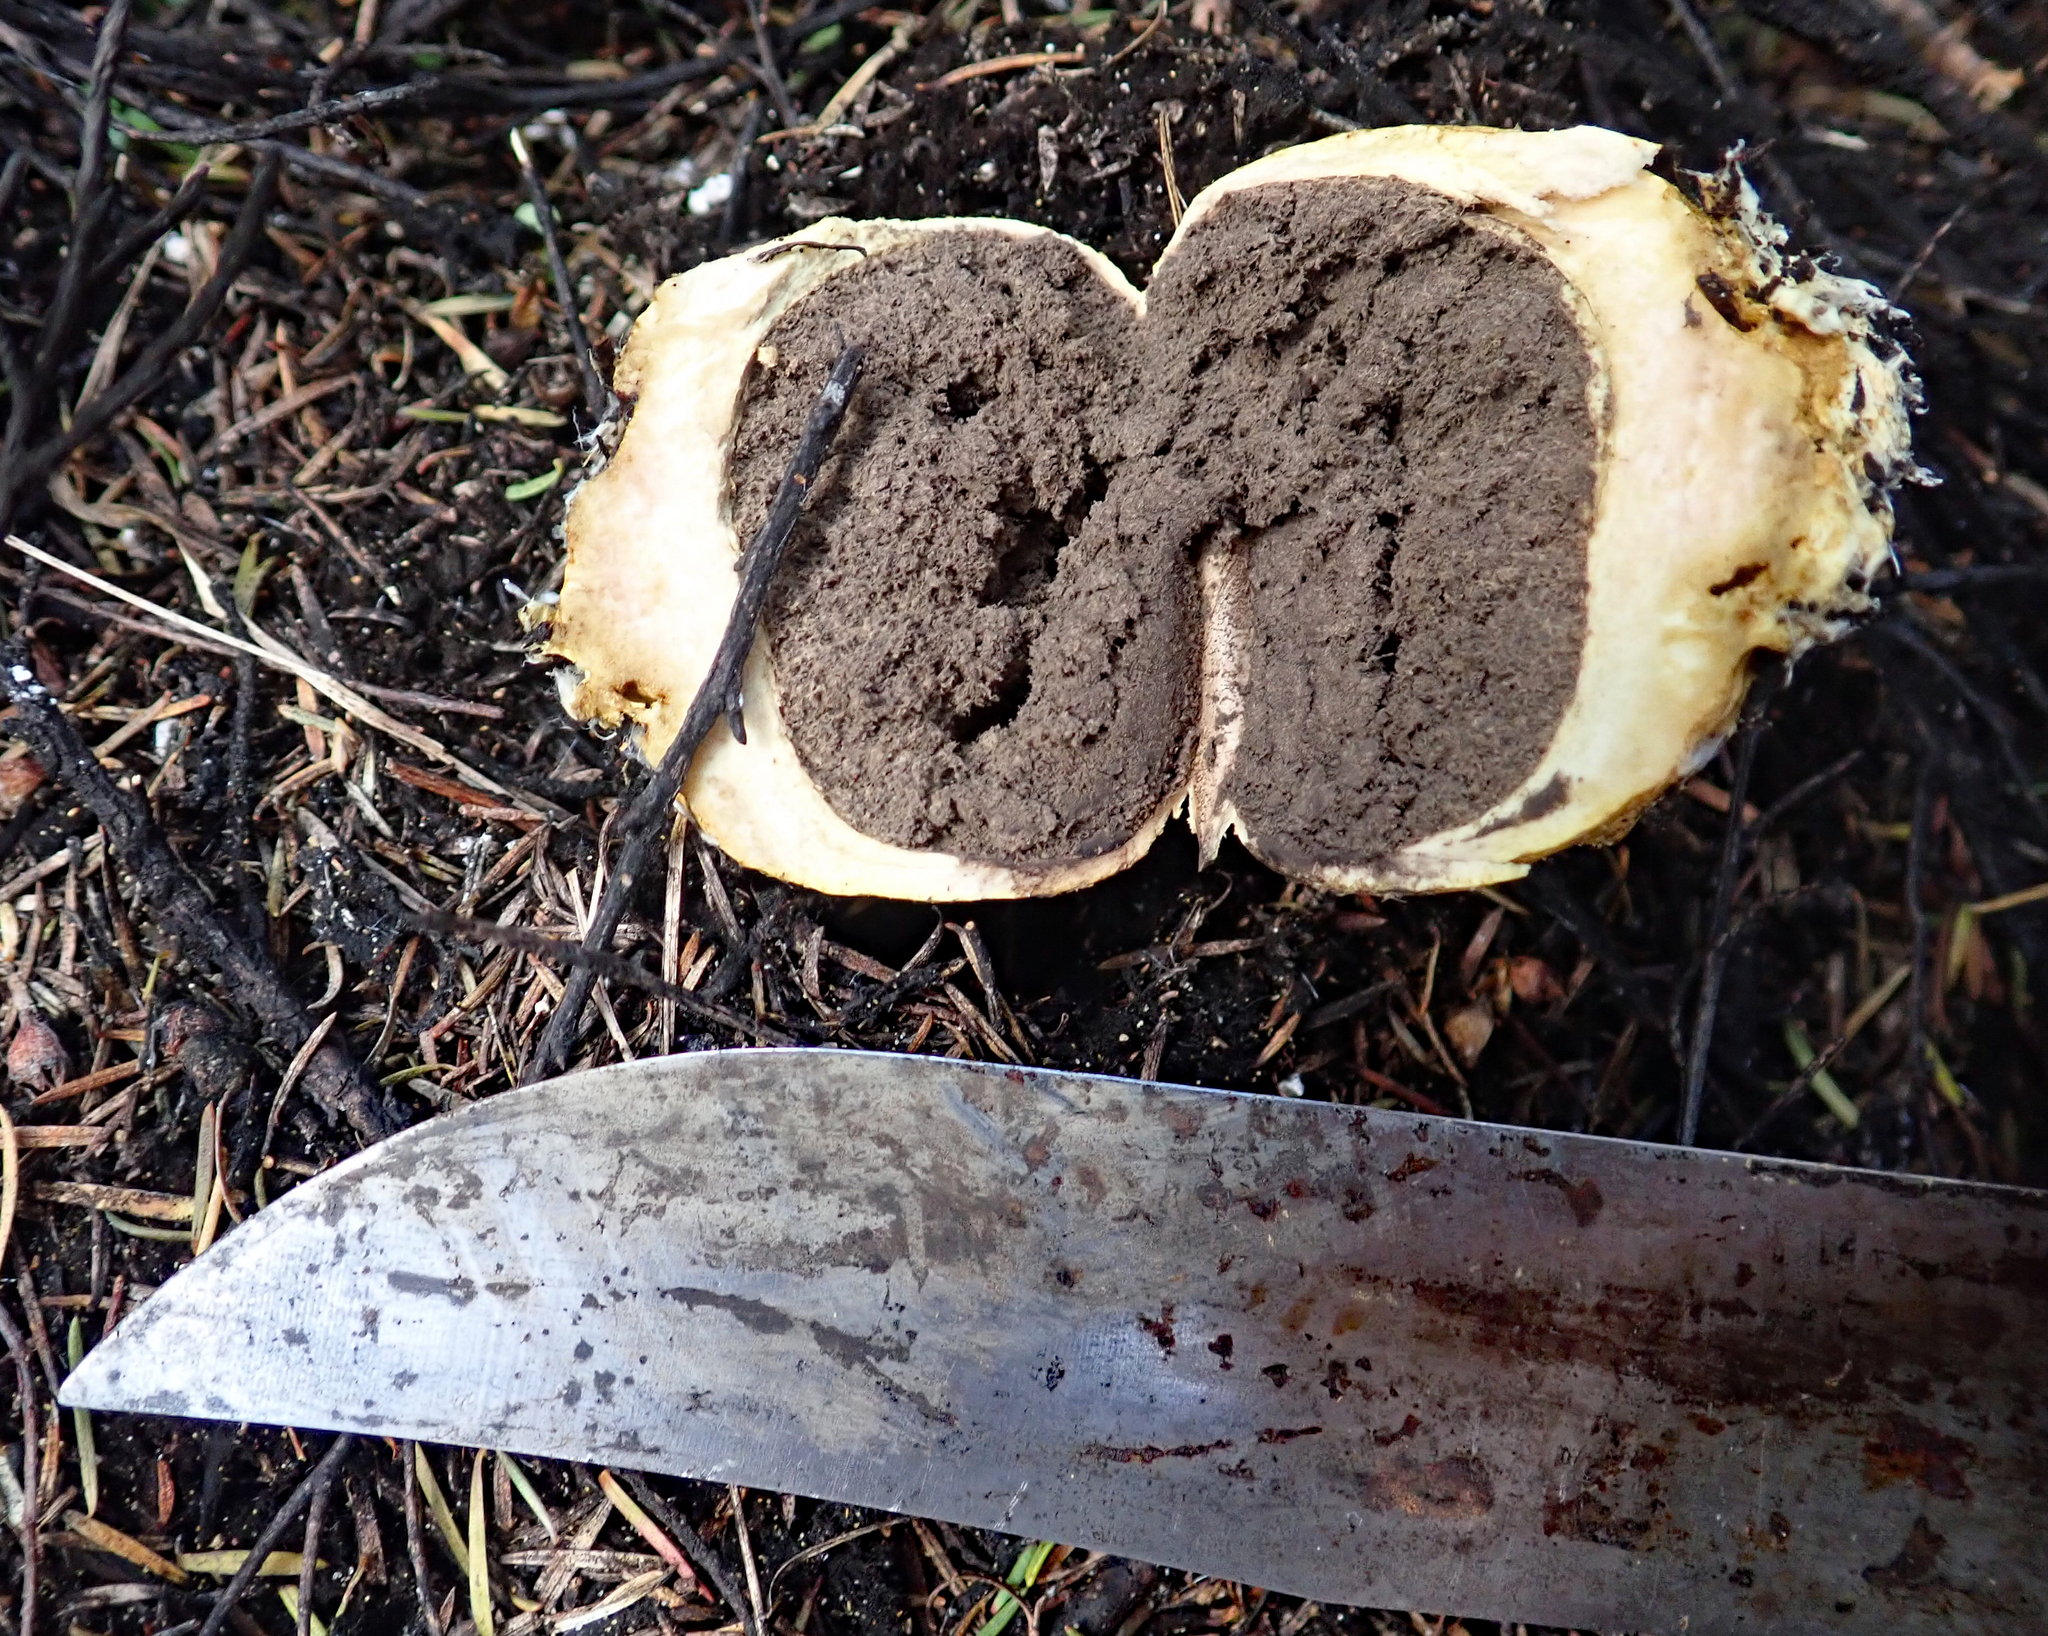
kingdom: Fungi
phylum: Basidiomycota
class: Agaricomycetes
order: Boletales
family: Sclerodermataceae
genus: Scleroderma
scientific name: Scleroderma
